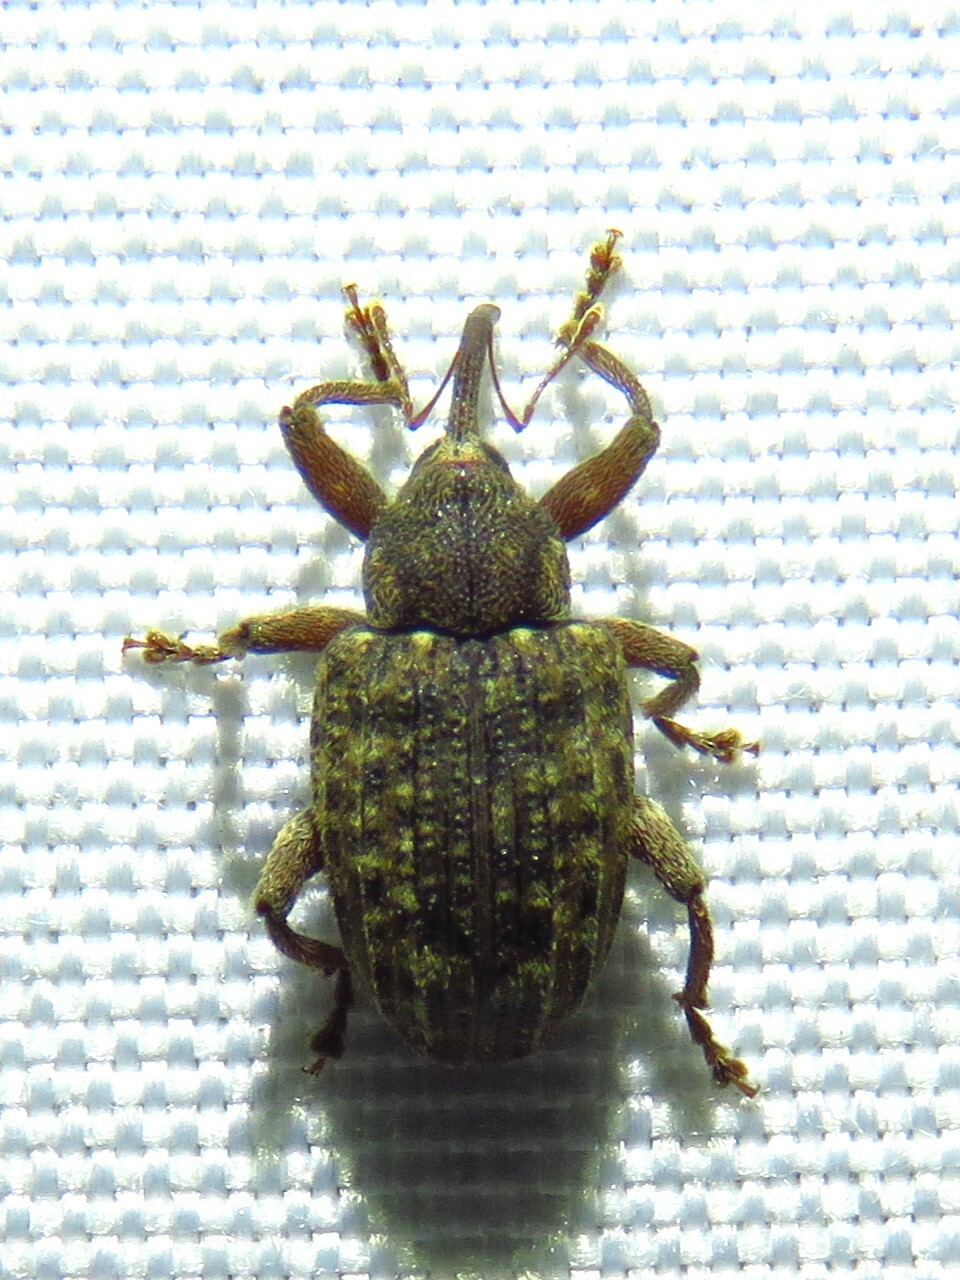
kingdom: Animalia
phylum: Arthropoda
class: Insecta
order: Coleoptera
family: Curculionidae
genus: Conotrachelus
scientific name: Conotrachelus naso
